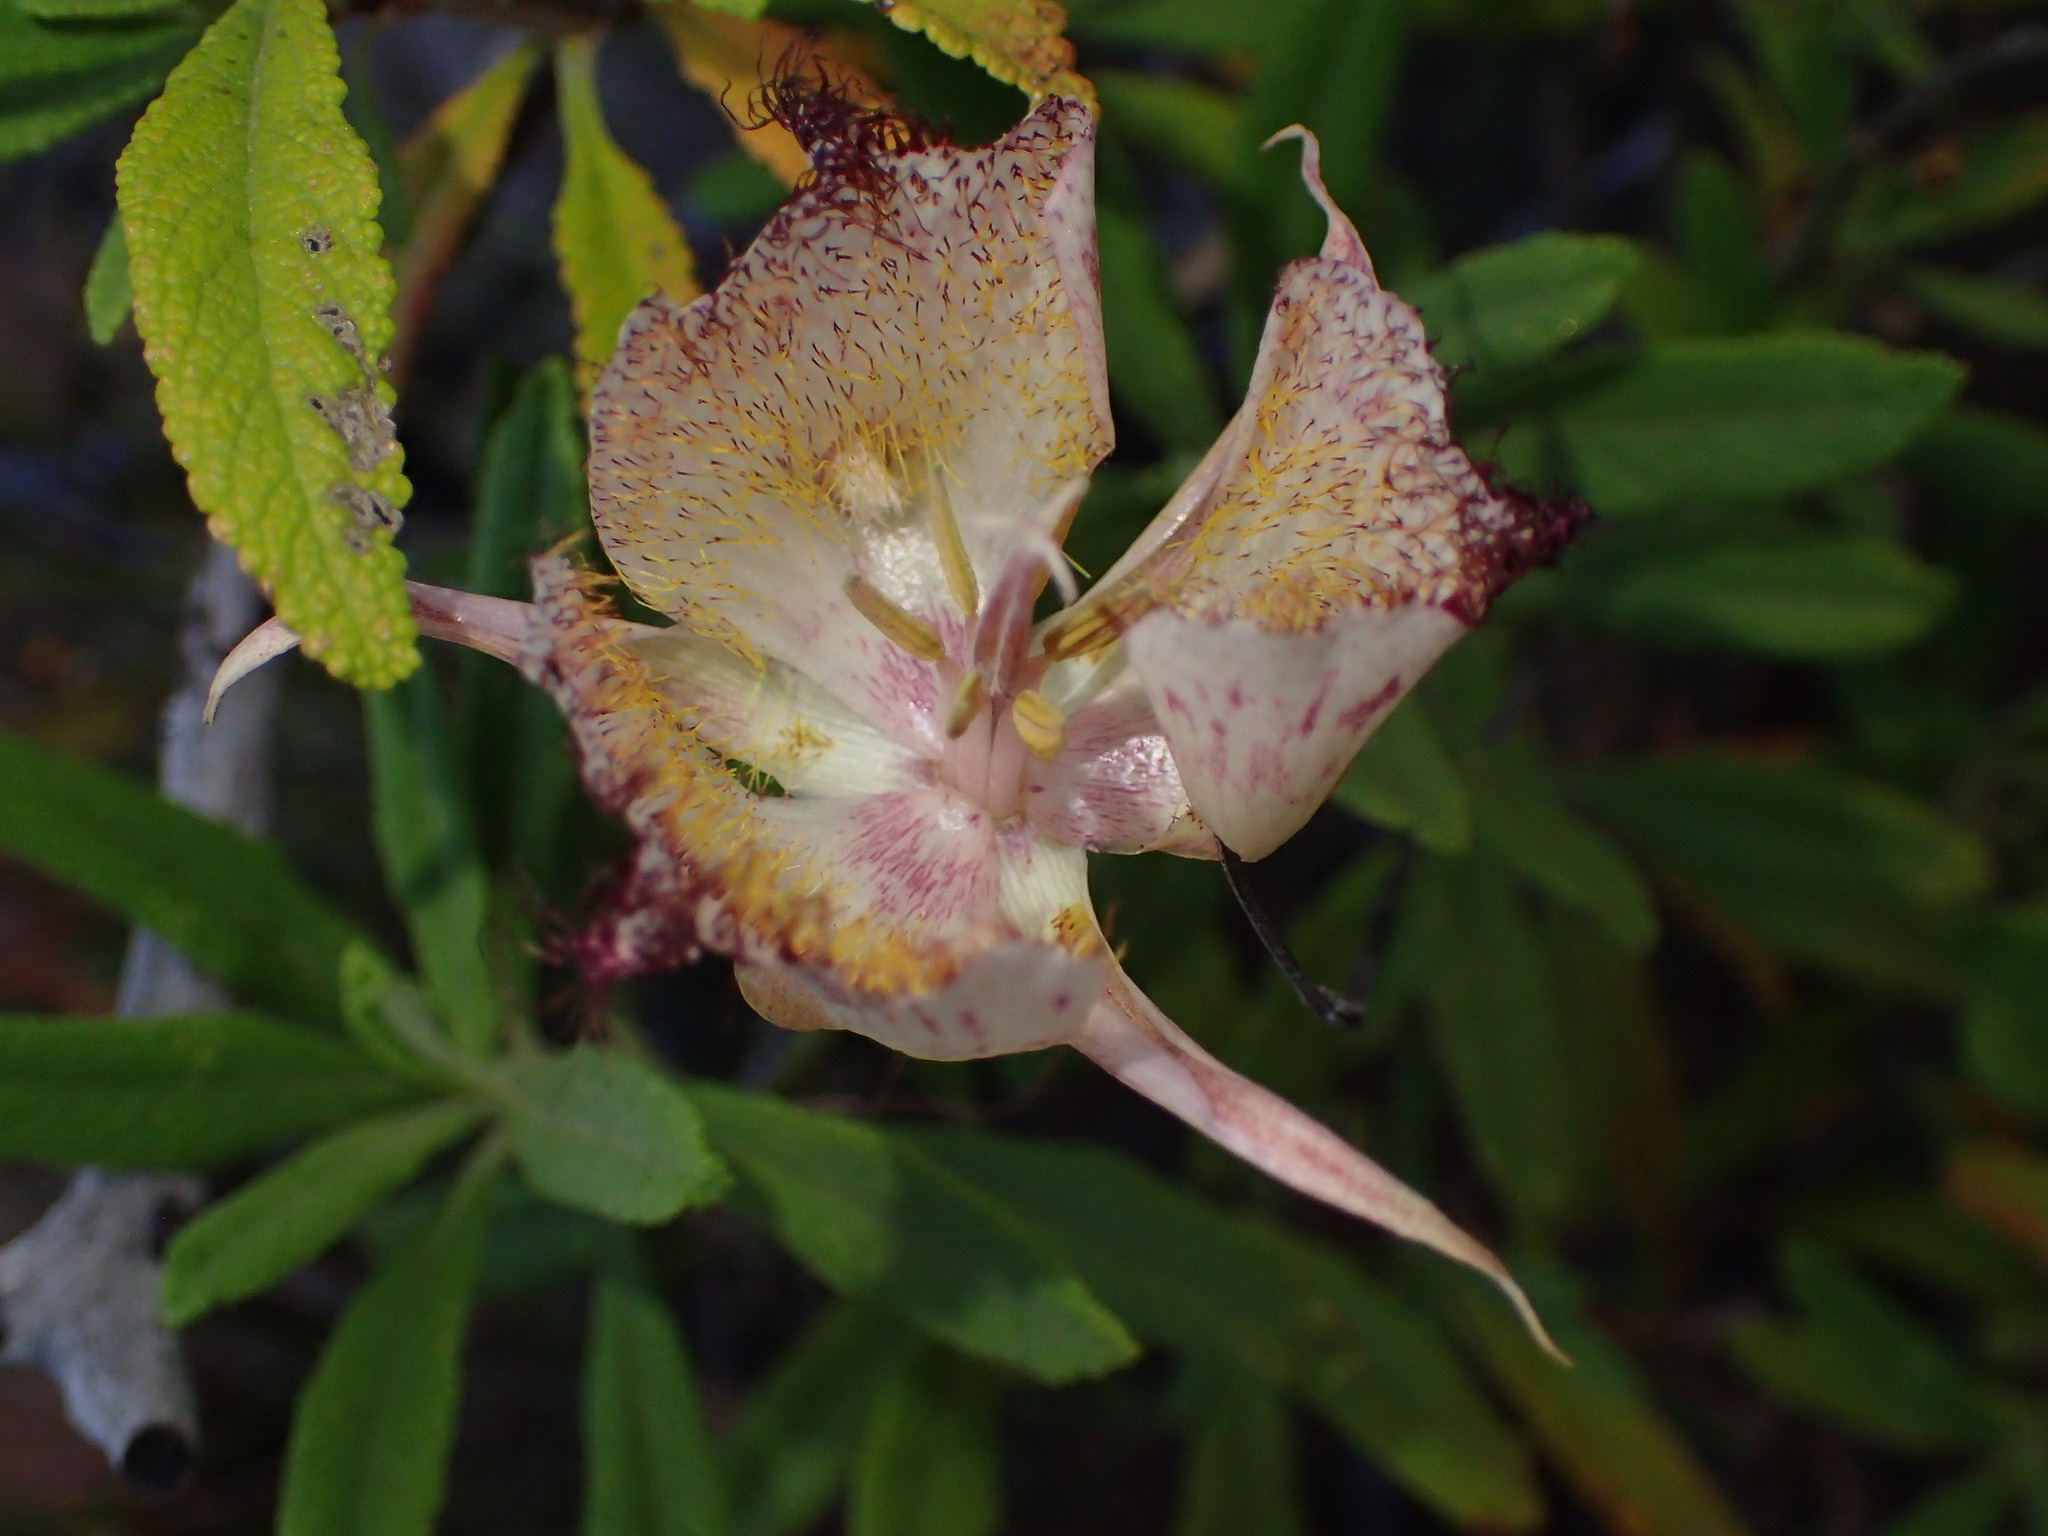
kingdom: Plantae
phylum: Tracheophyta
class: Liliopsida
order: Liliales
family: Liliaceae
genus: Calochortus
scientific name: Calochortus fimbriatus
